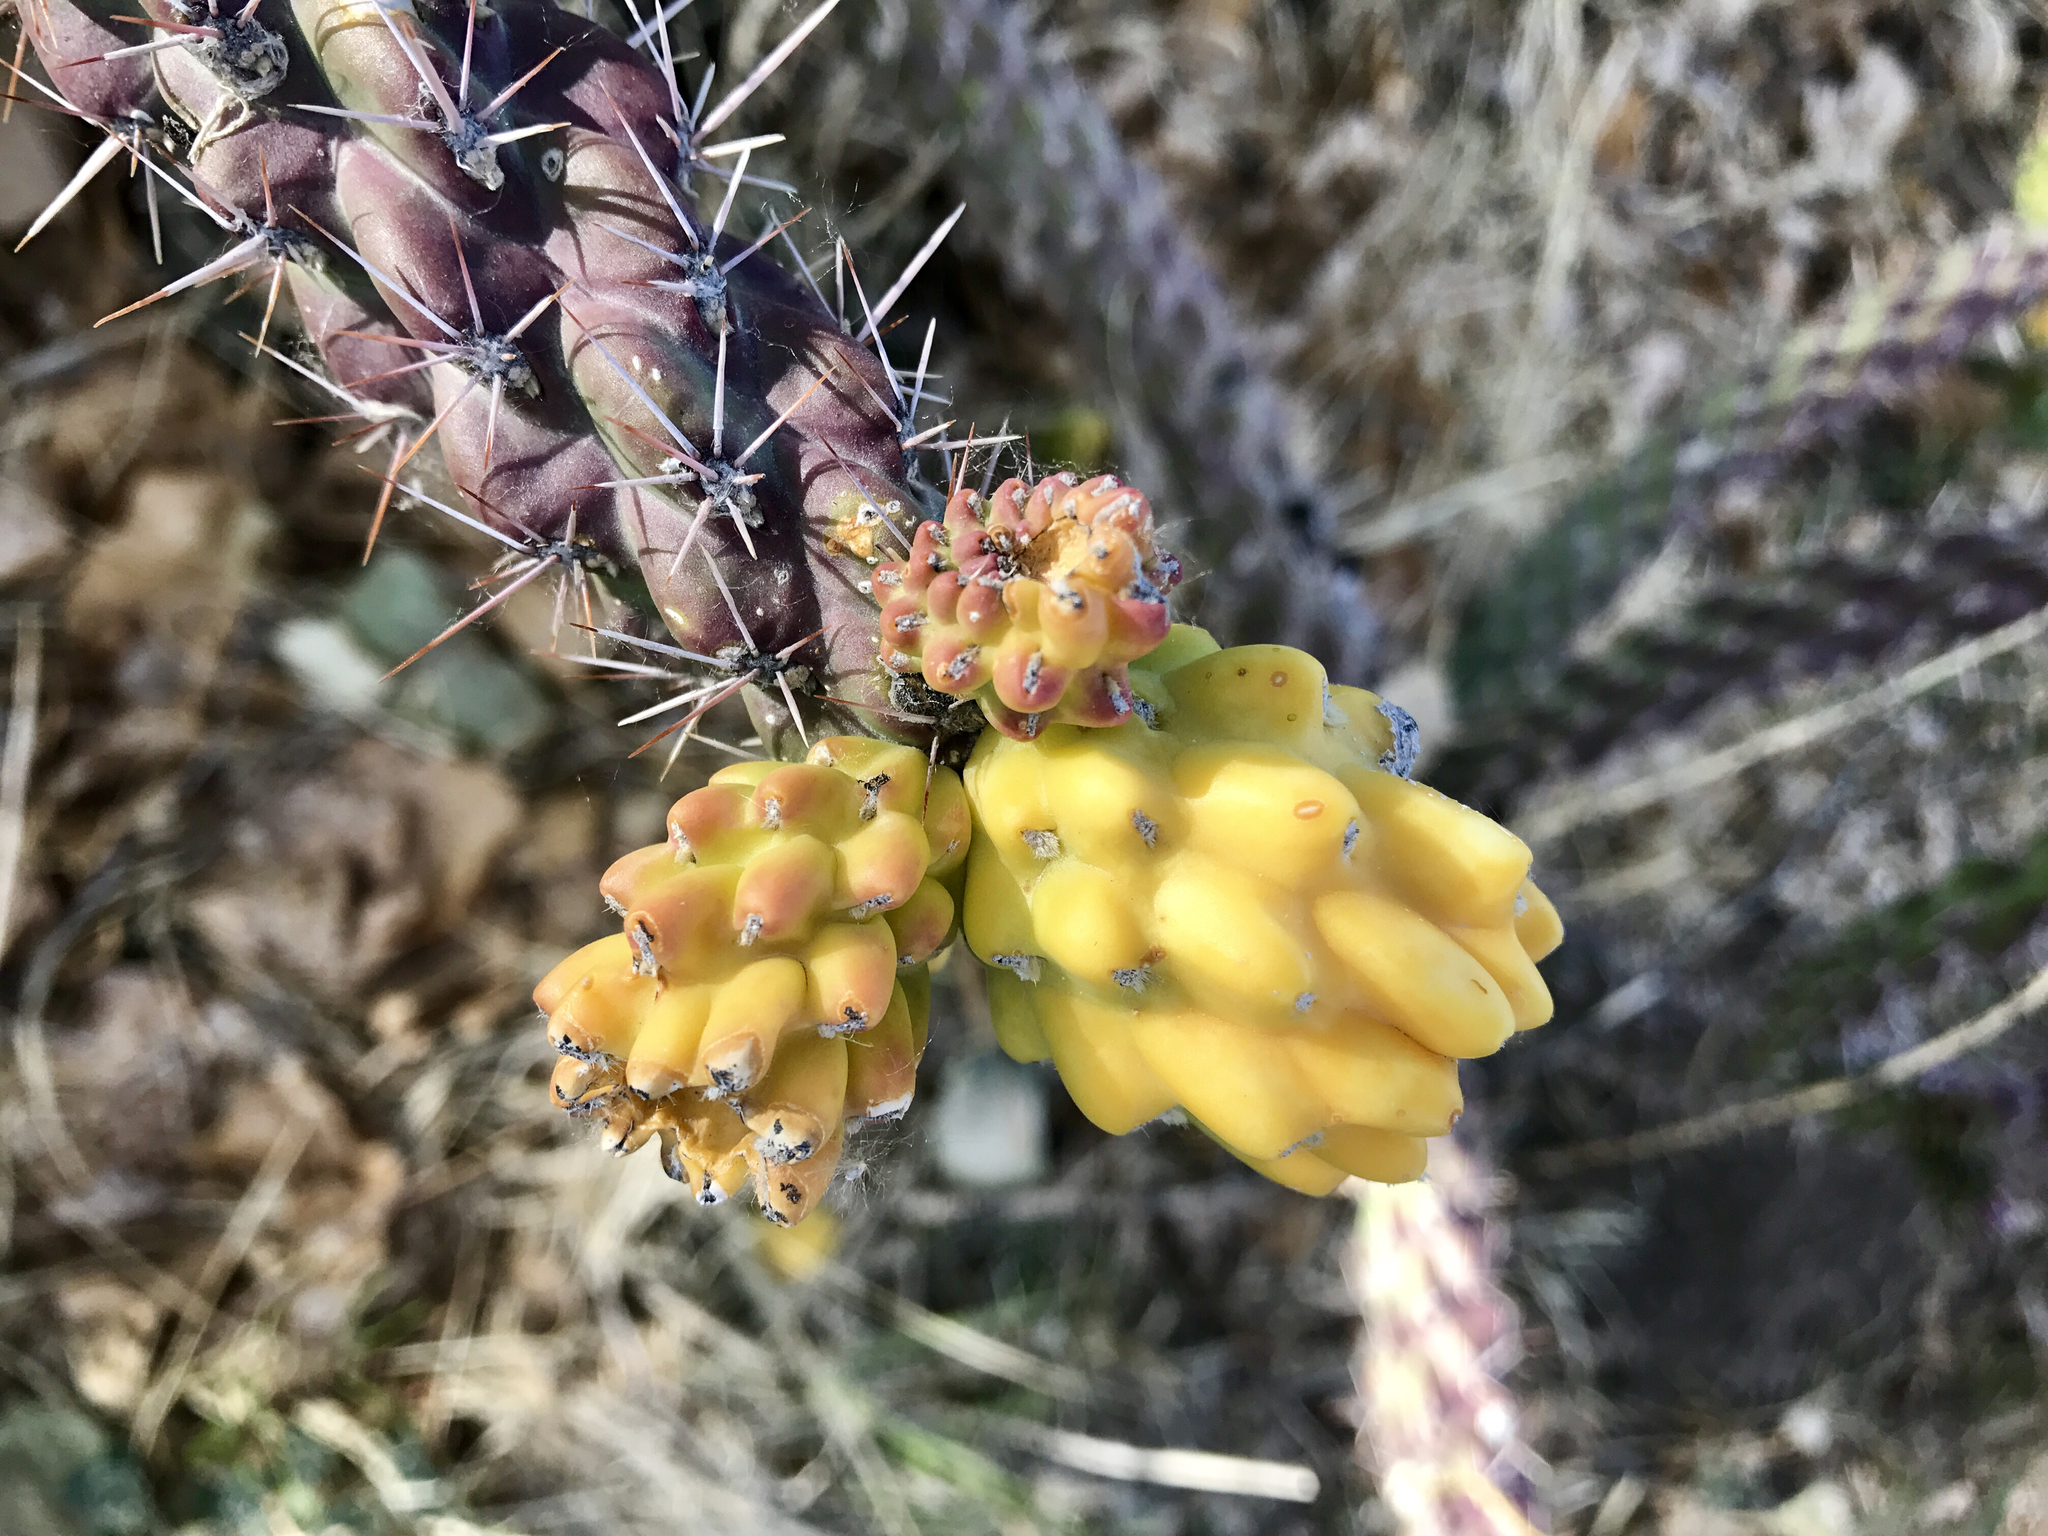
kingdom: Plantae
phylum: Tracheophyta
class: Magnoliopsida
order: Caryophyllales
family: Cactaceae
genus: Cylindropuntia
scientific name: Cylindropuntia imbricata
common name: Candelabrum cactus
